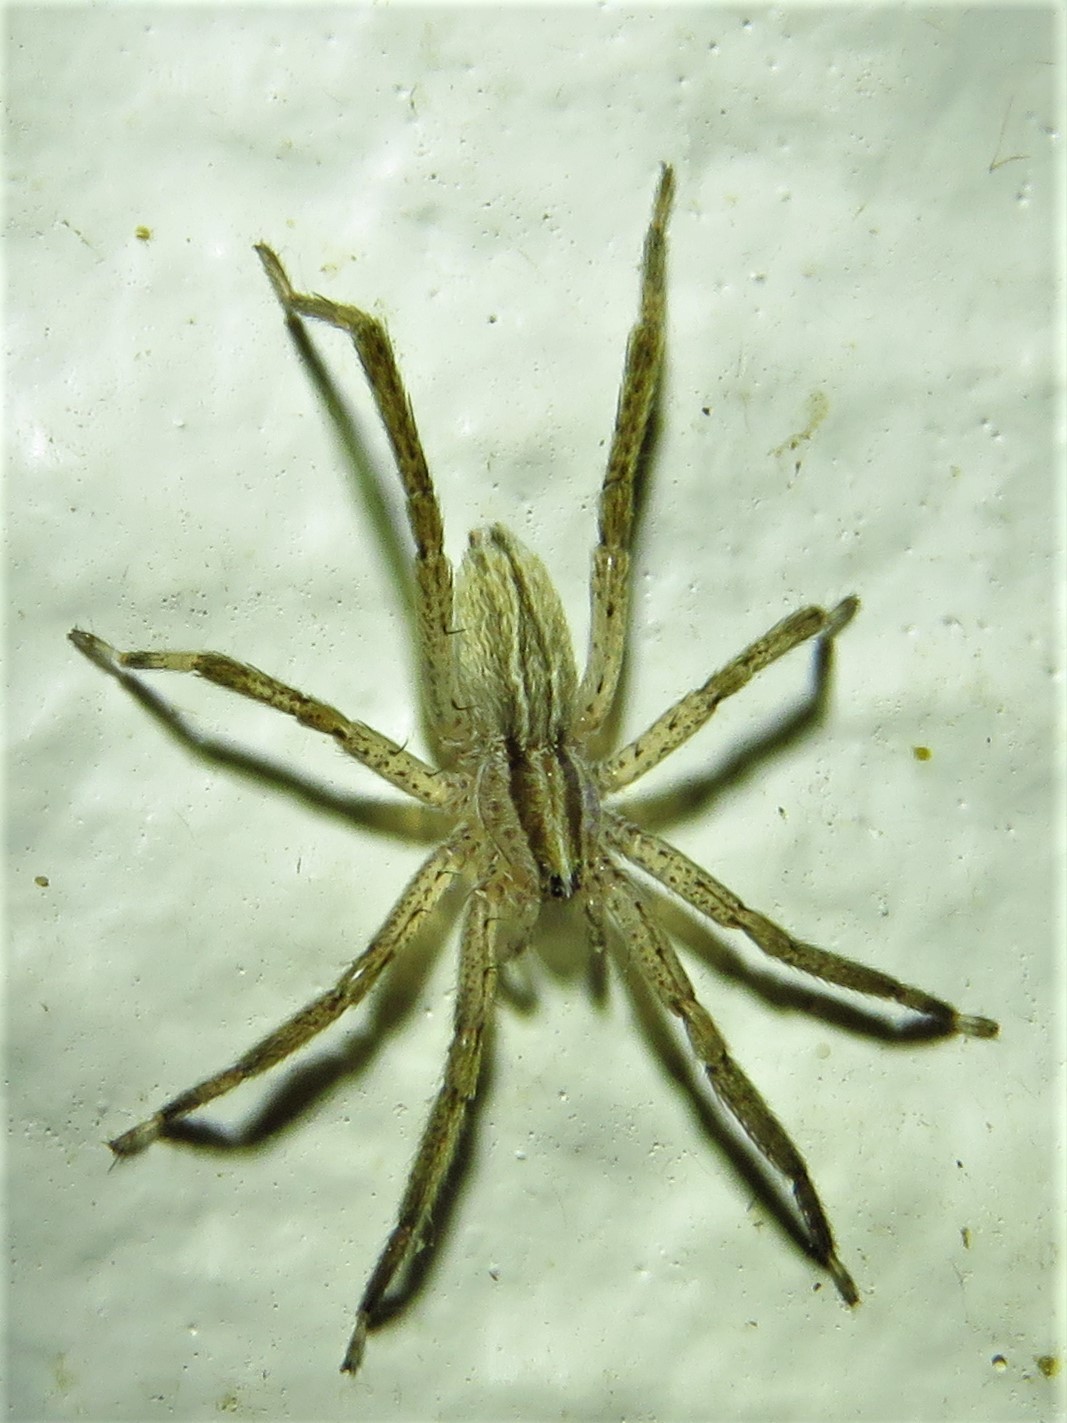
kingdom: Animalia
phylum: Arthropoda
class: Arachnida
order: Araneae
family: Miturgidae
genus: Zora
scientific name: Zora pumila
